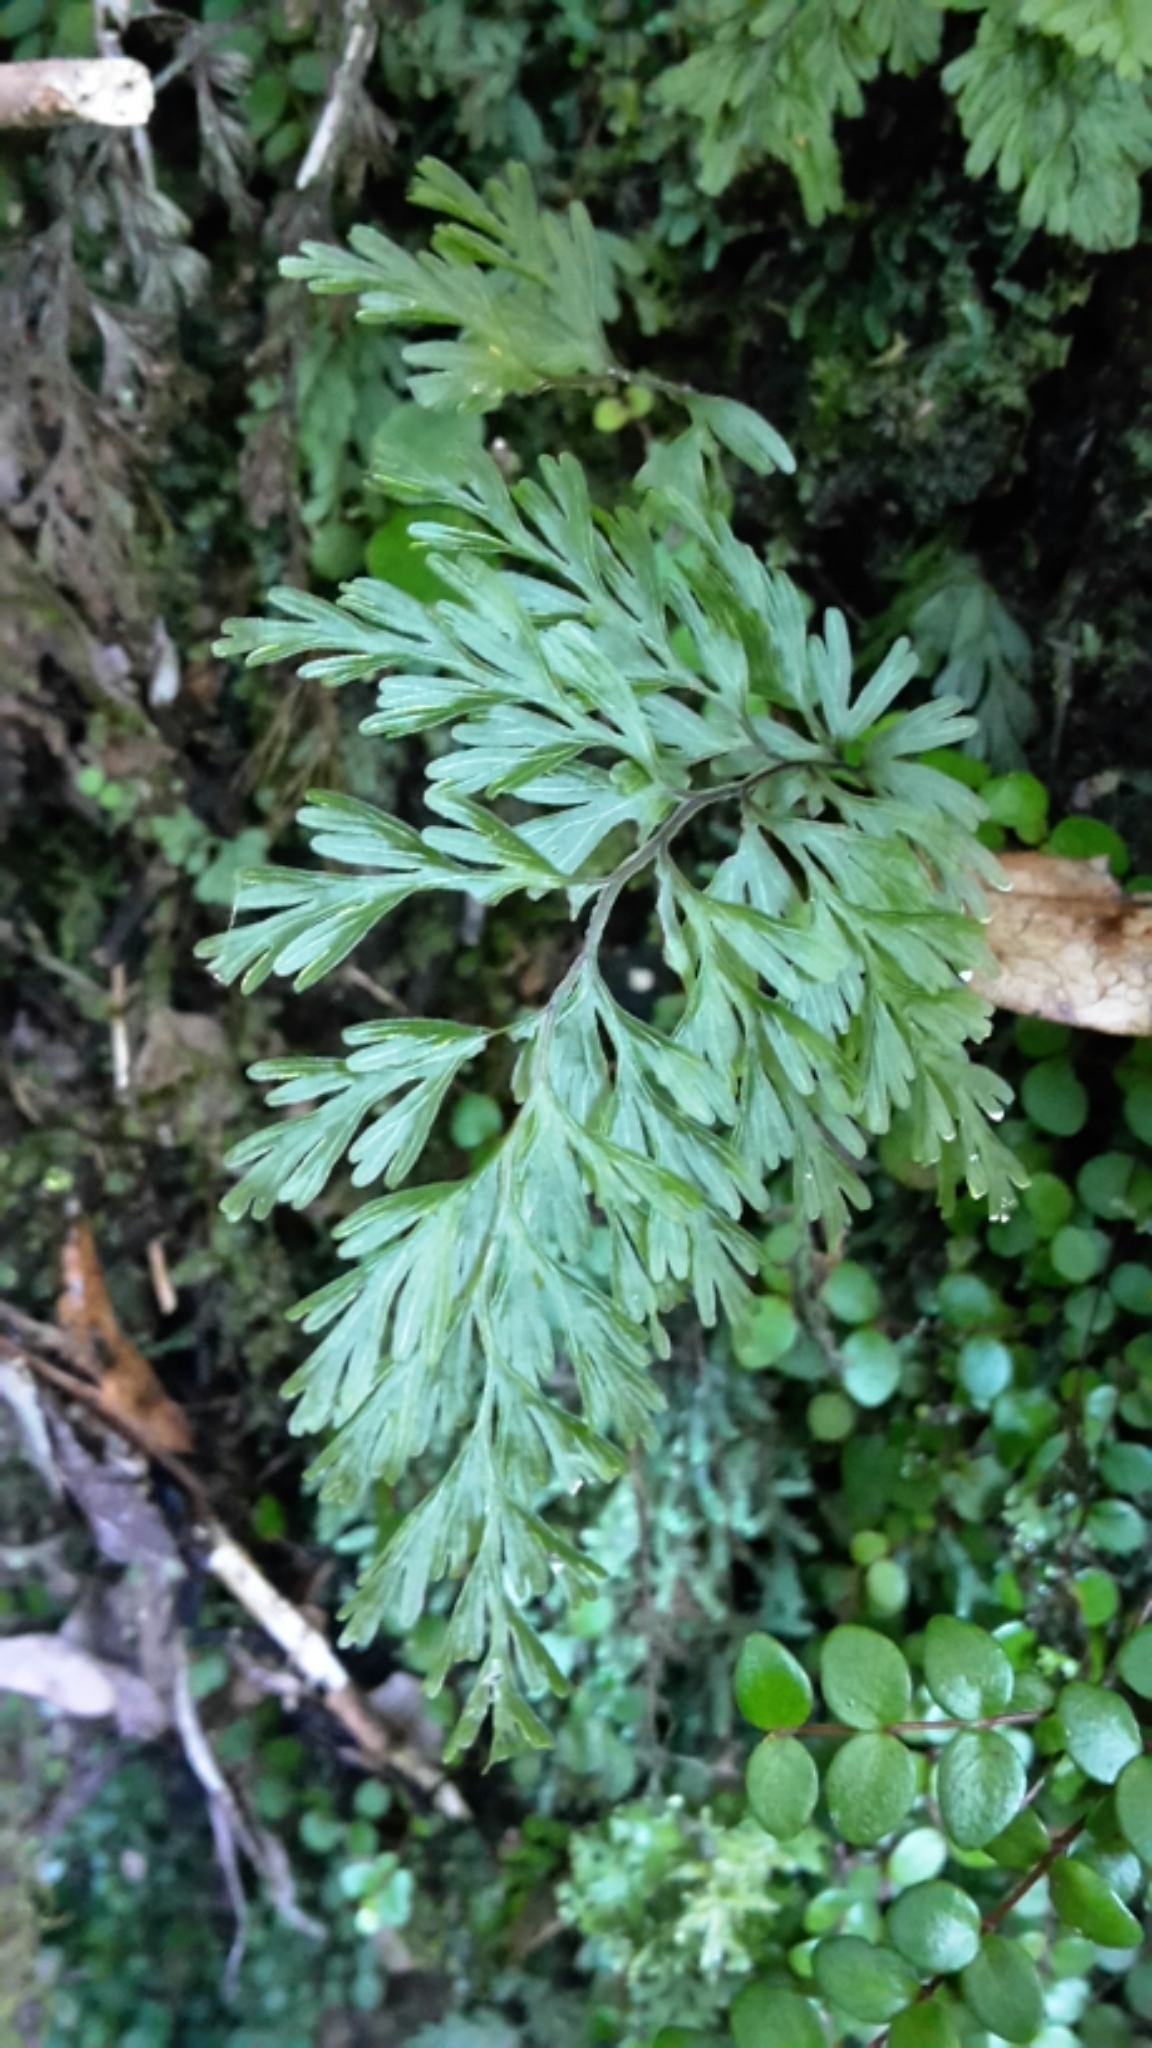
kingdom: Plantae
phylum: Tracheophyta
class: Polypodiopsida
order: Hymenophyllales
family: Hymenophyllaceae
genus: Hymenophyllum
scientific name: Hymenophyllum demissum
